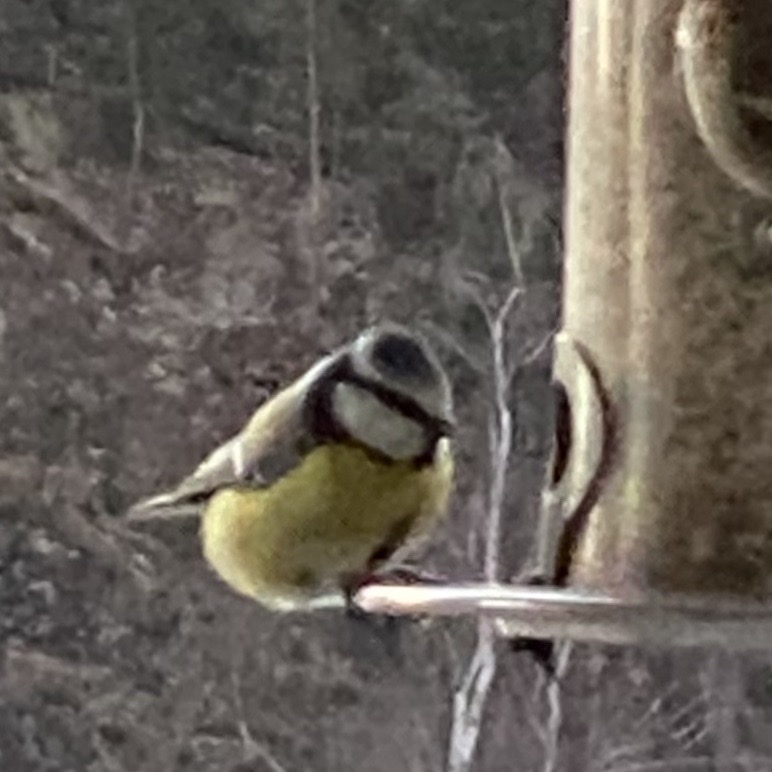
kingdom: Animalia
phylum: Chordata
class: Aves
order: Passeriformes
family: Paridae
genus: Cyanistes
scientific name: Cyanistes caeruleus
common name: Eurasian blue tit
